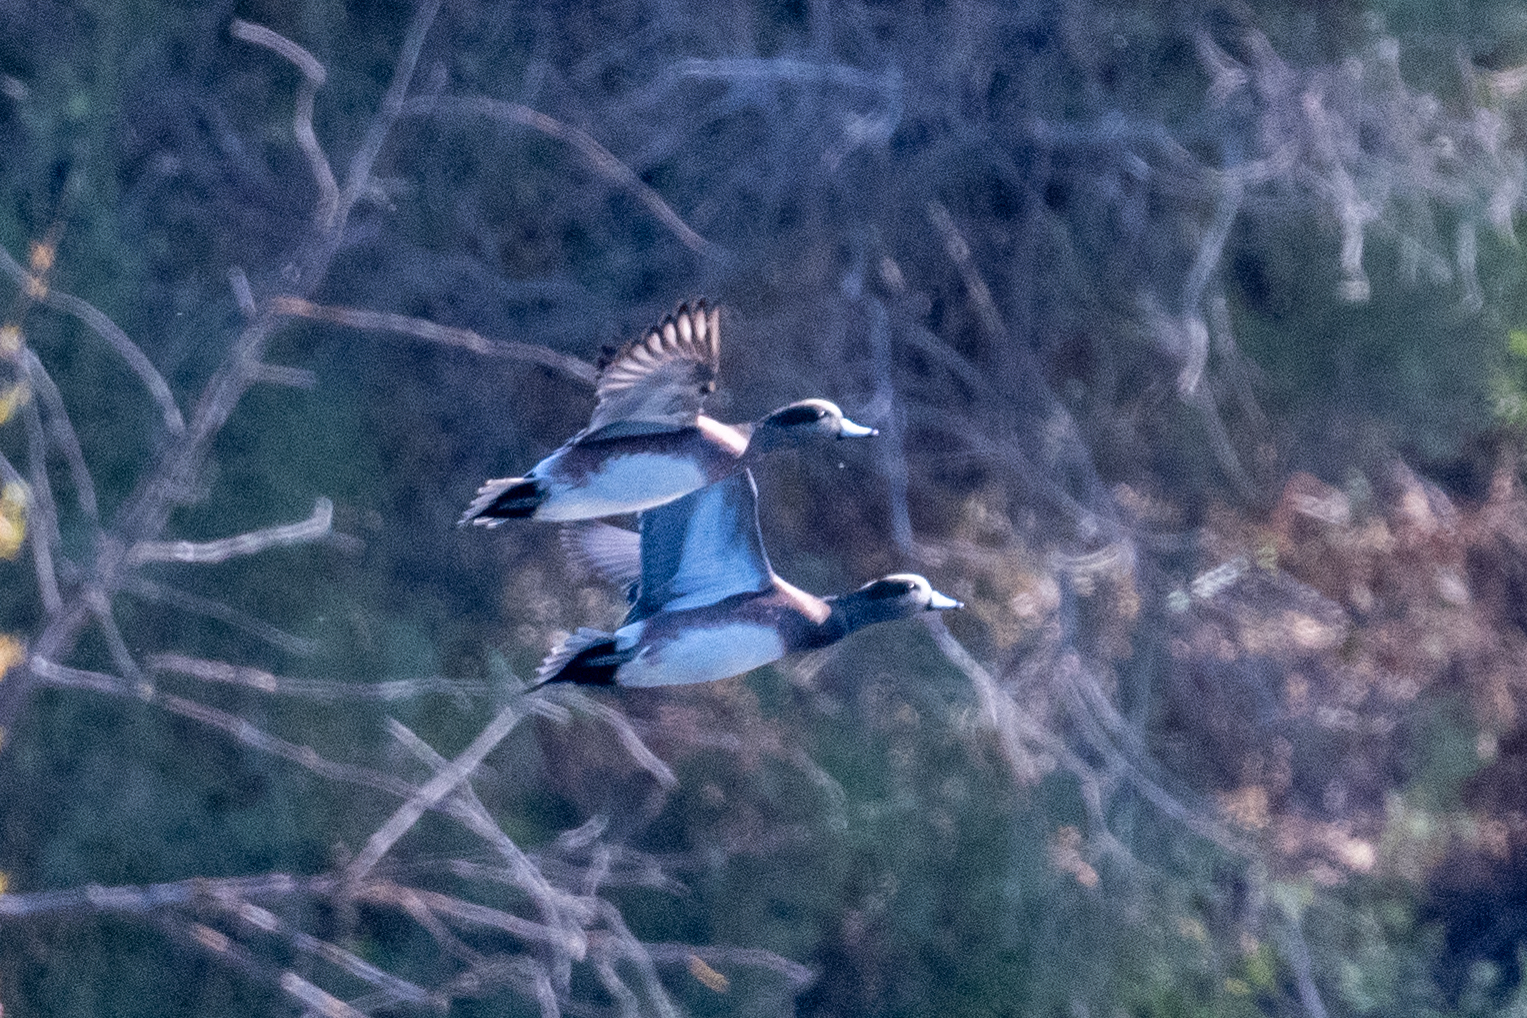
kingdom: Animalia
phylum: Chordata
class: Aves
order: Anseriformes
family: Anatidae
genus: Mareca
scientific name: Mareca americana
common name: American wigeon
